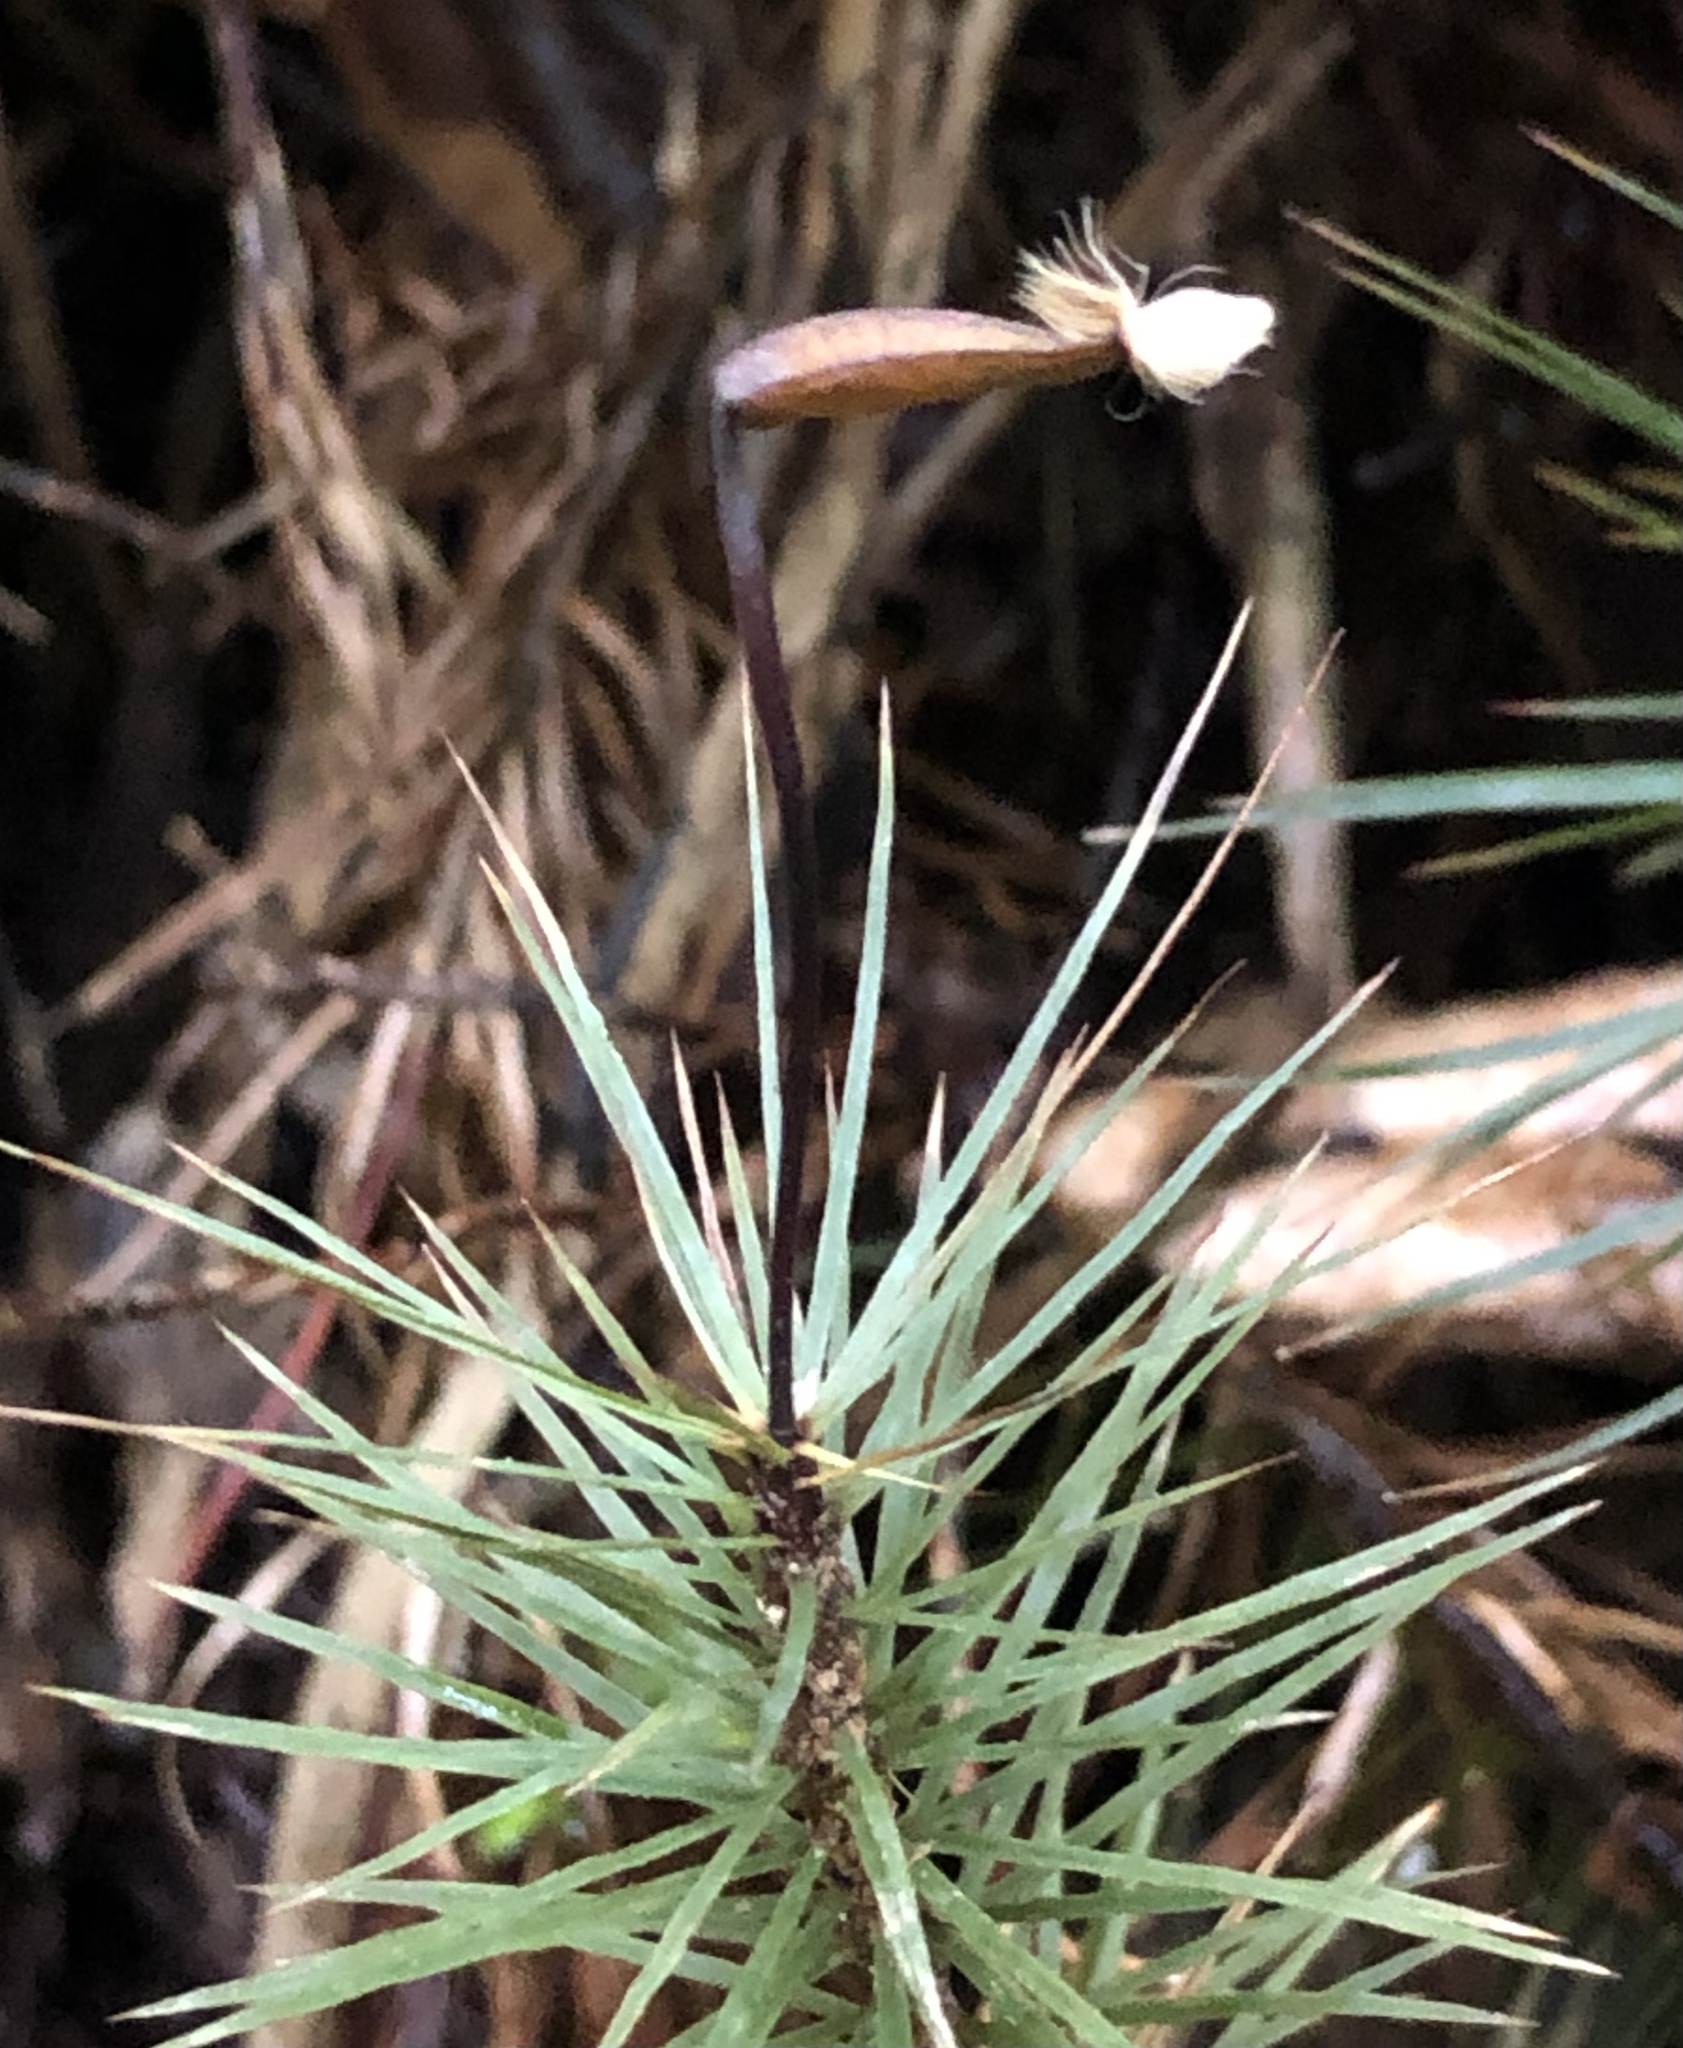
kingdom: Plantae
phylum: Bryophyta
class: Polytrichopsida
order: Polytrichales
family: Polytrichaceae
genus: Dawsonia
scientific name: Dawsonia superba
